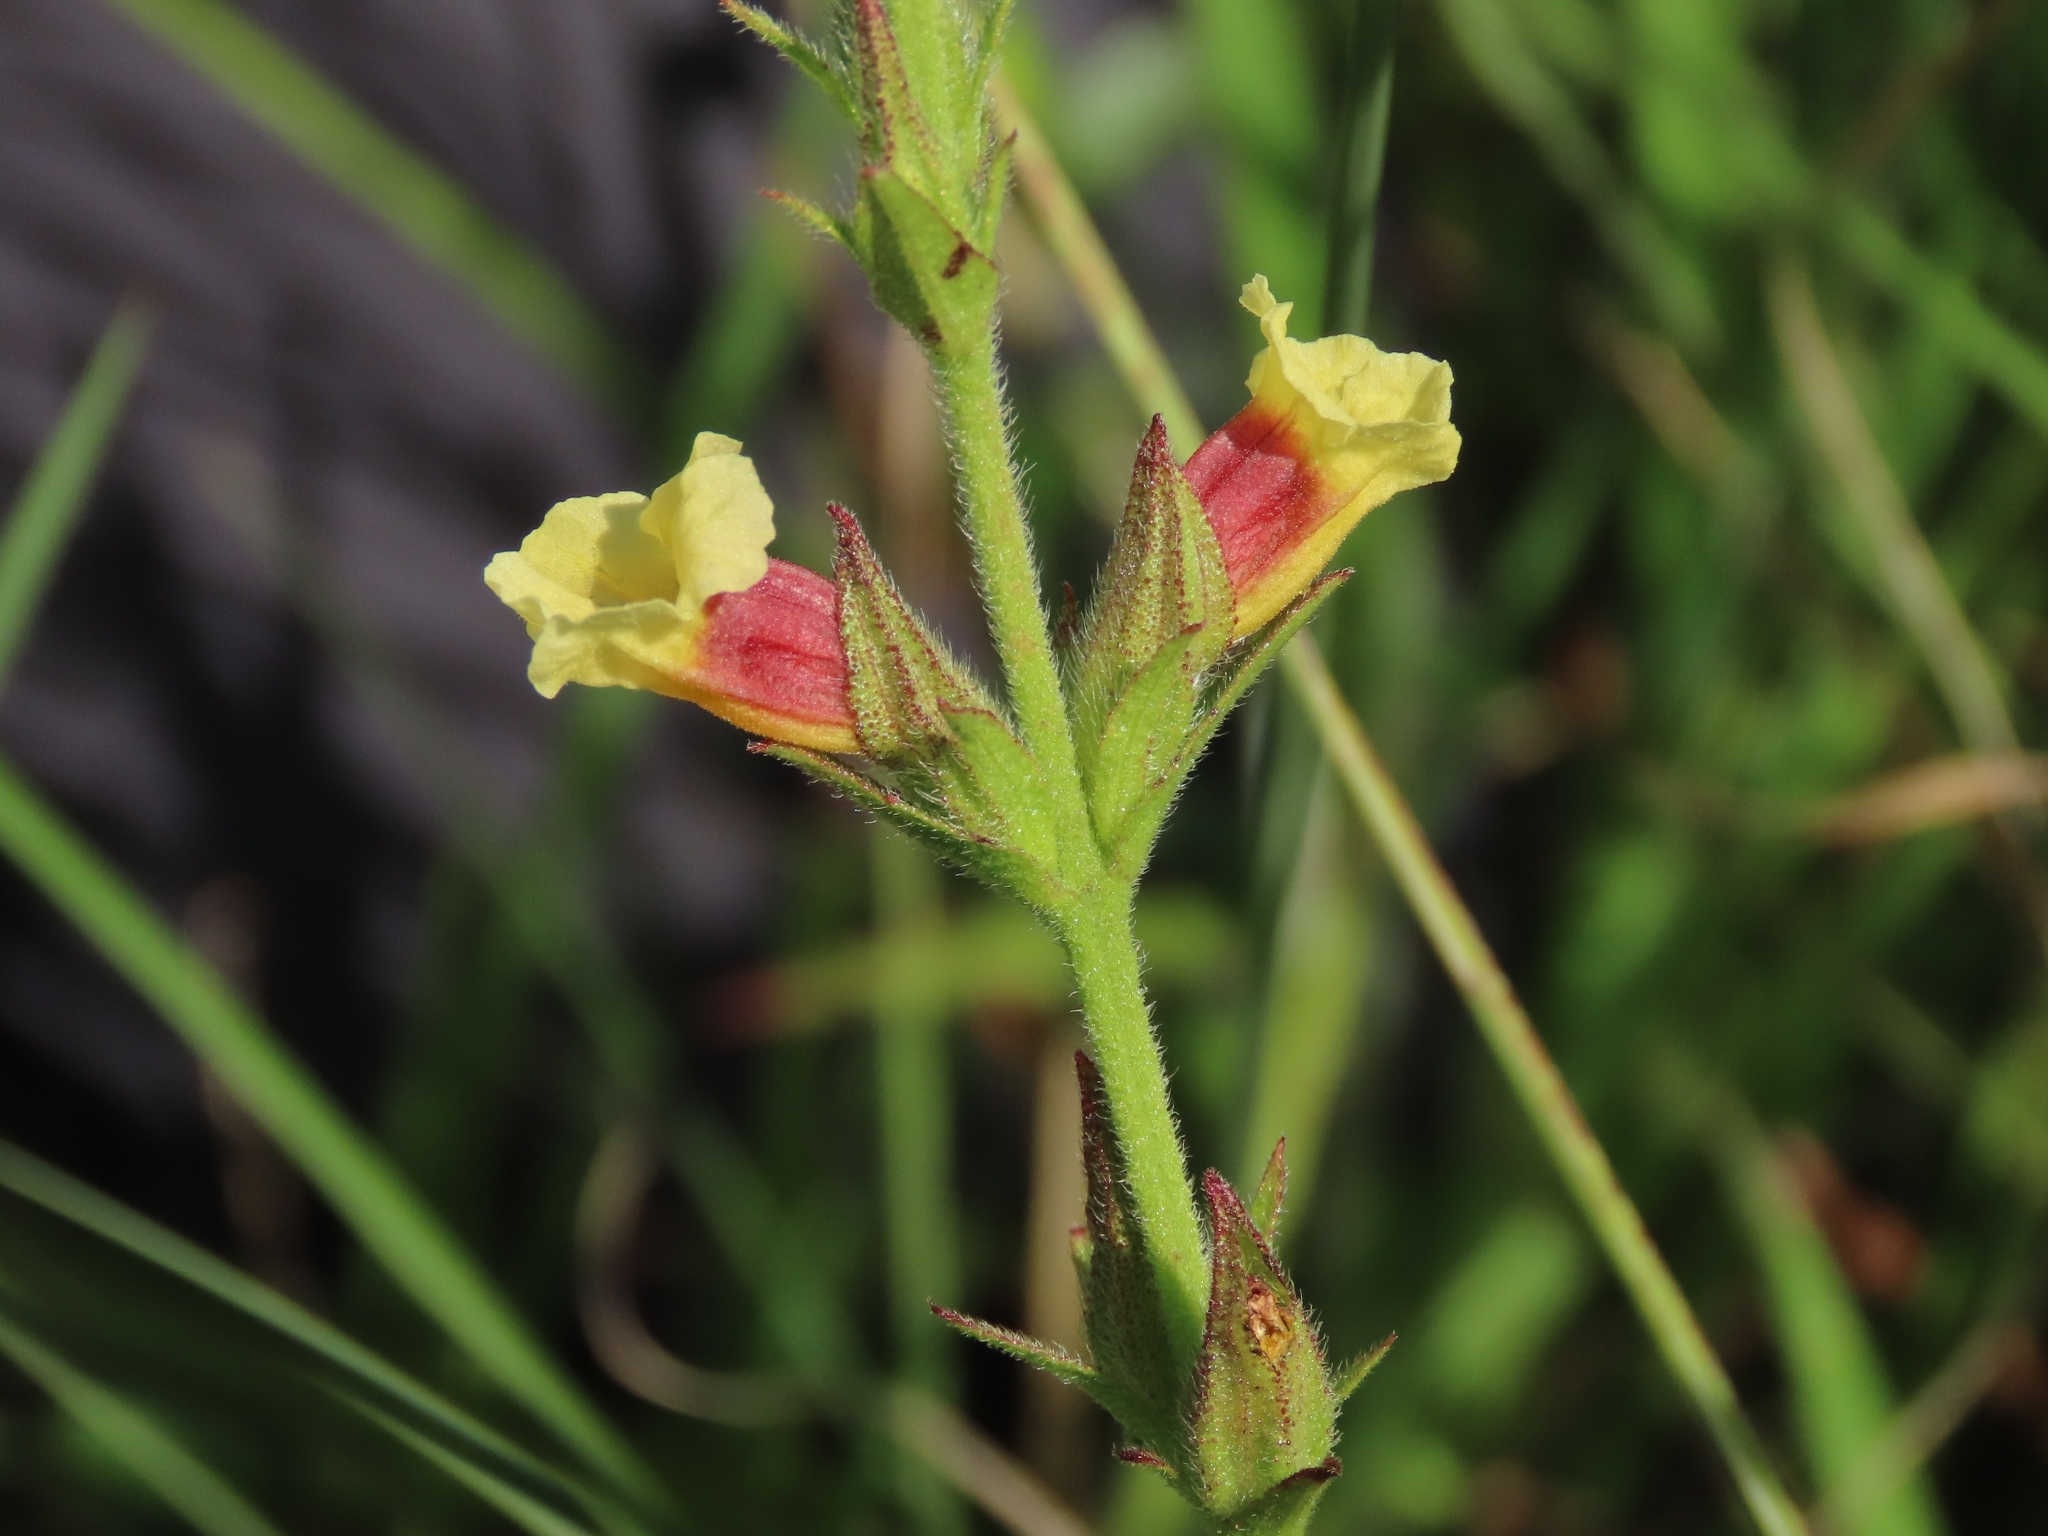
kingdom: Plantae
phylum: Tracheophyta
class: Magnoliopsida
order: Lamiales
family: Orobanchaceae
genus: Centranthera
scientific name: Centranthera cochinchinensis
